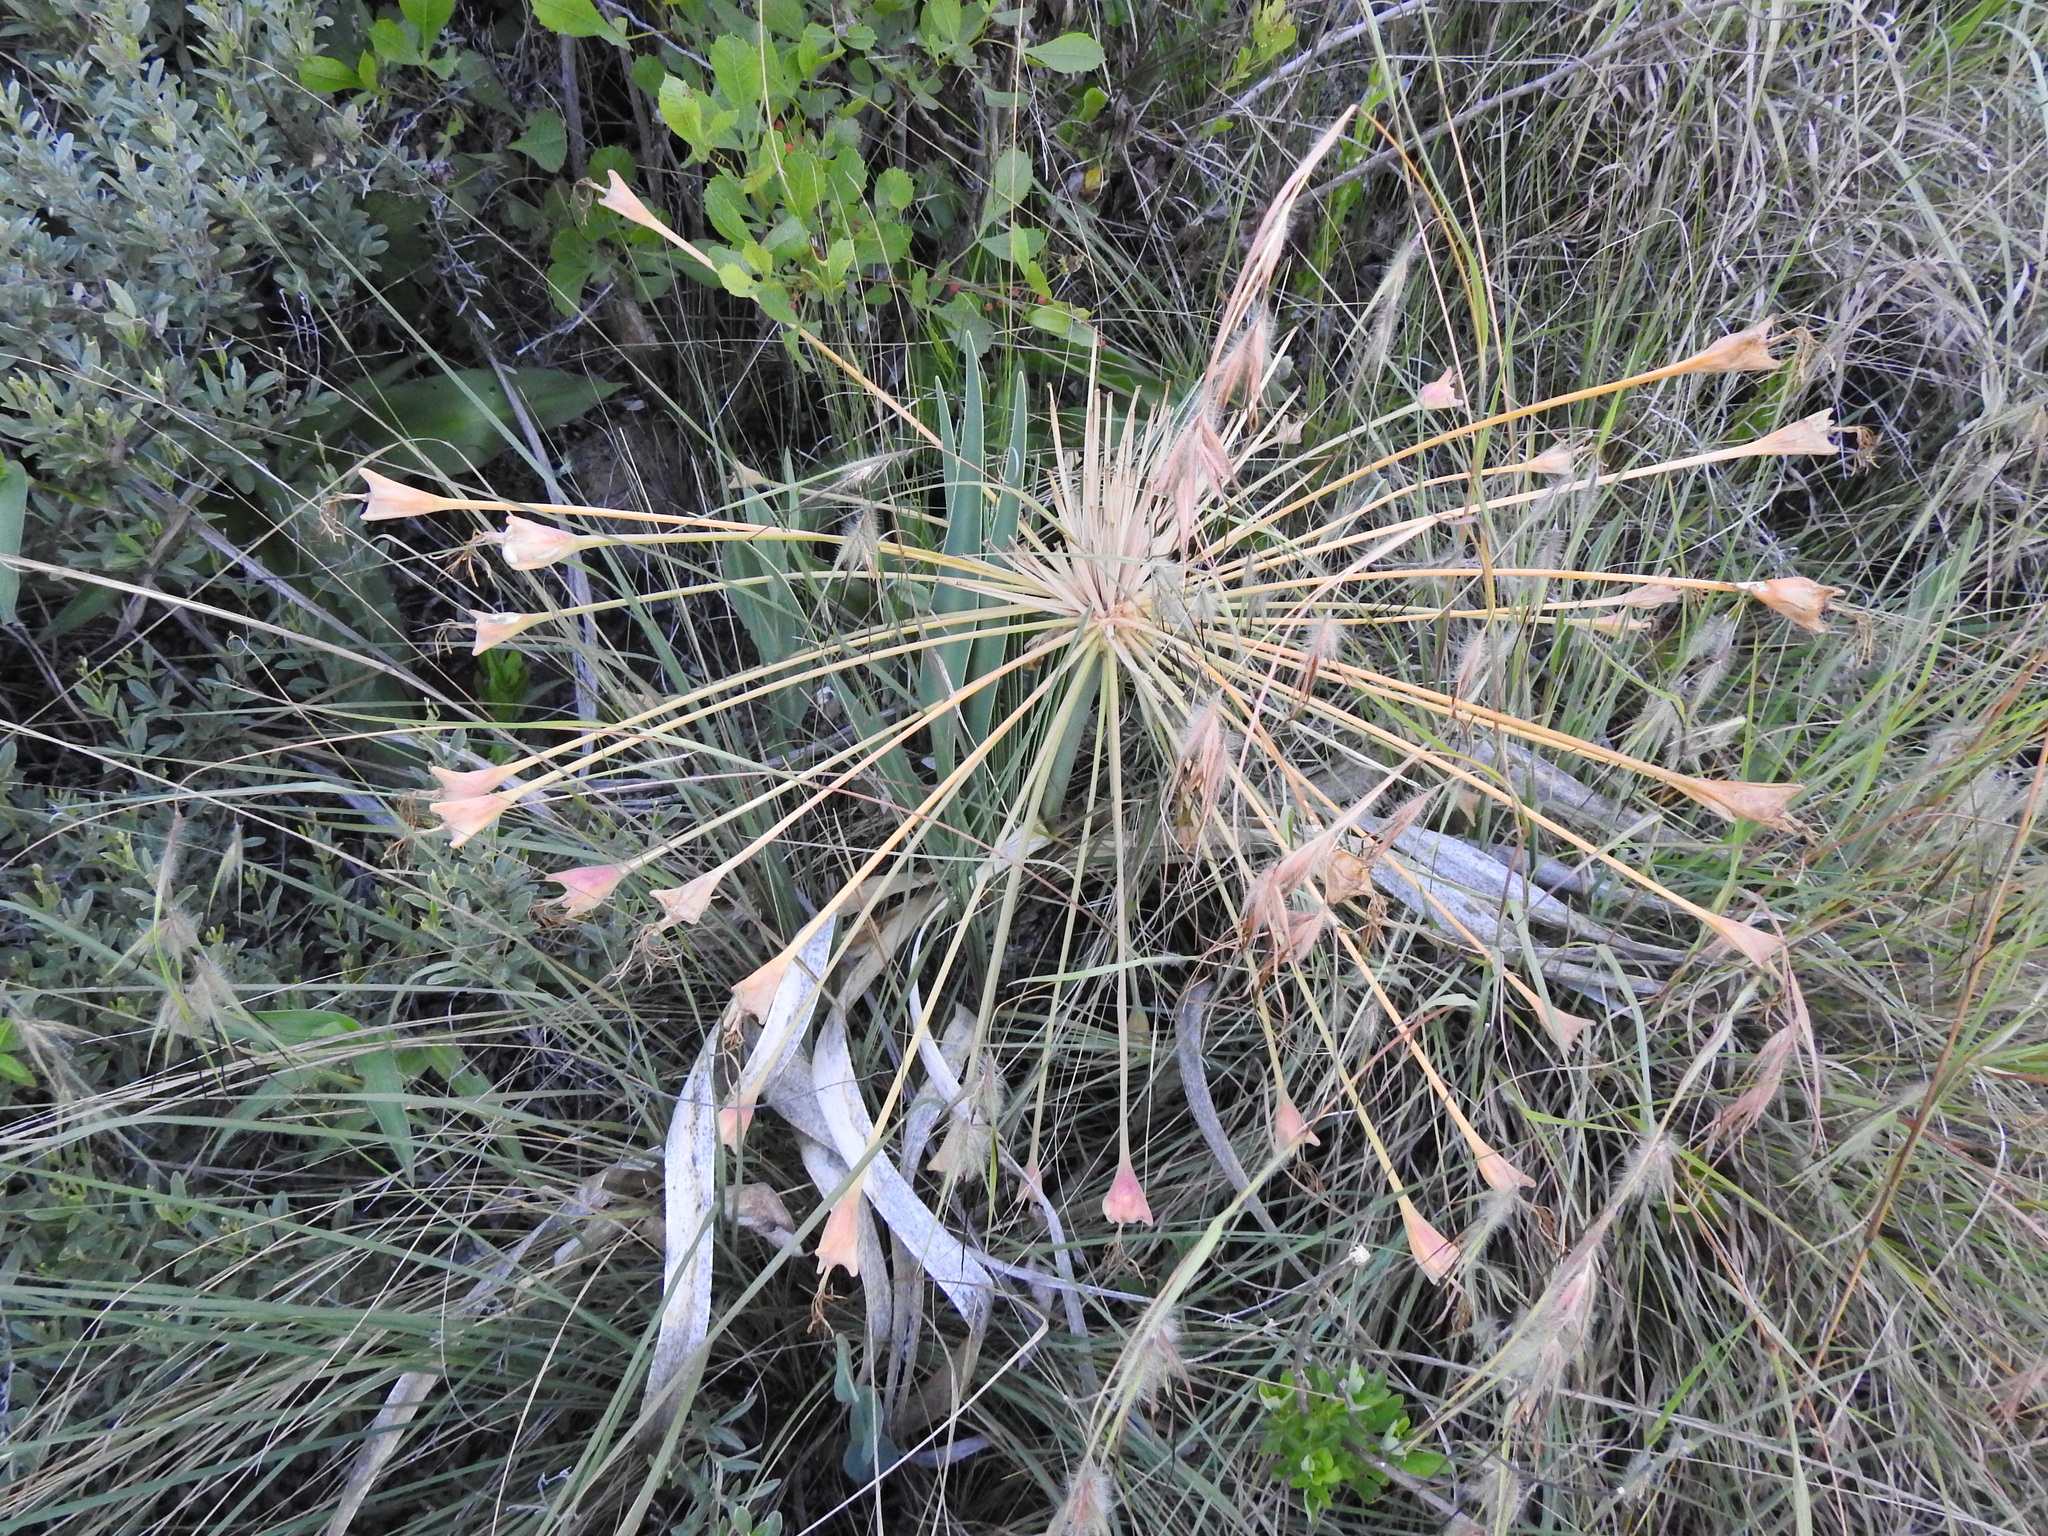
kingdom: Plantae
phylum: Tracheophyta
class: Liliopsida
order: Asparagales
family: Amaryllidaceae
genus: Boophone
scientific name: Boophone disticha
